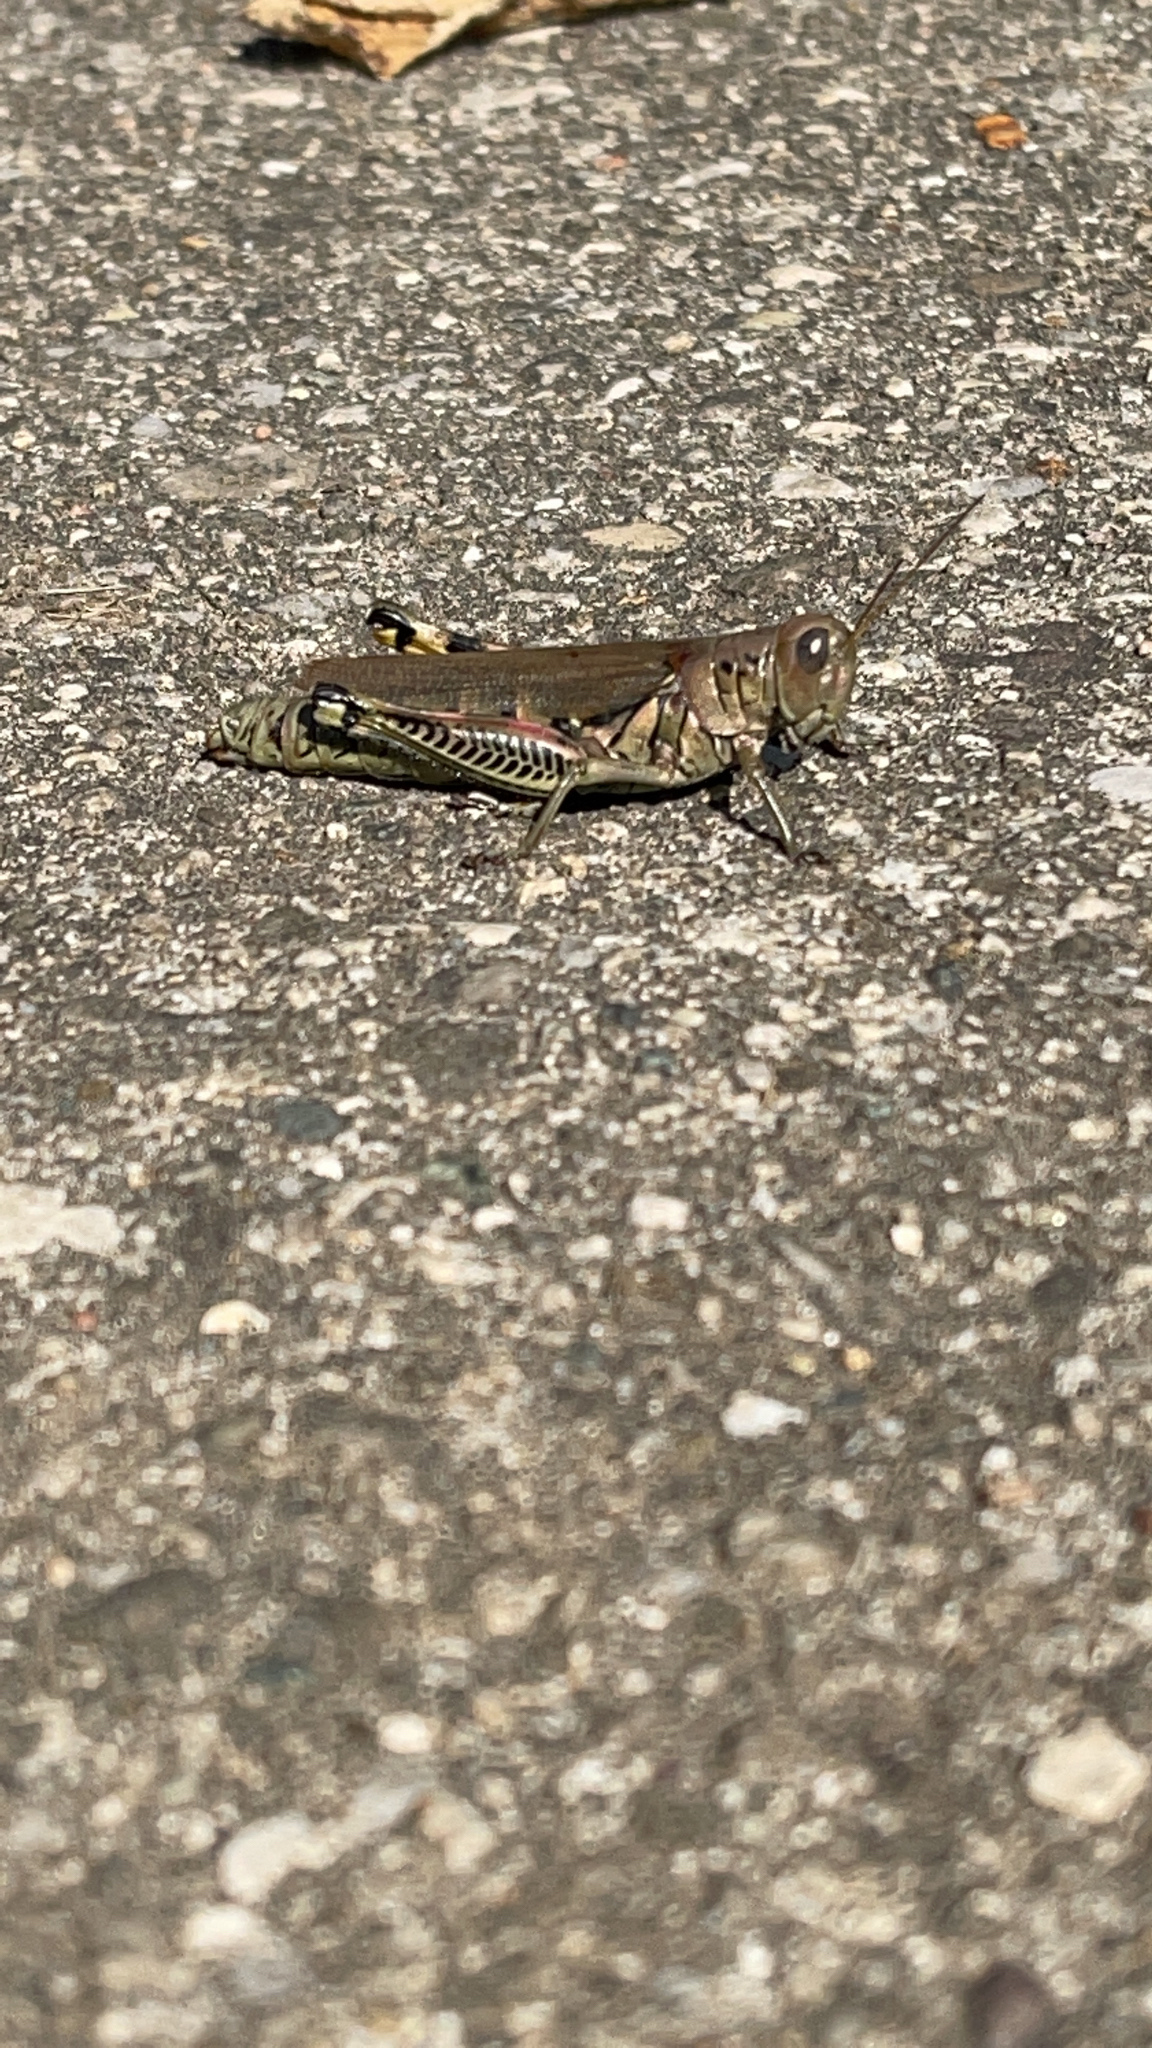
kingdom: Animalia
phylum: Arthropoda
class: Insecta
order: Orthoptera
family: Acrididae
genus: Melanoplus
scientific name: Melanoplus differentialis
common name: Differential grasshopper
